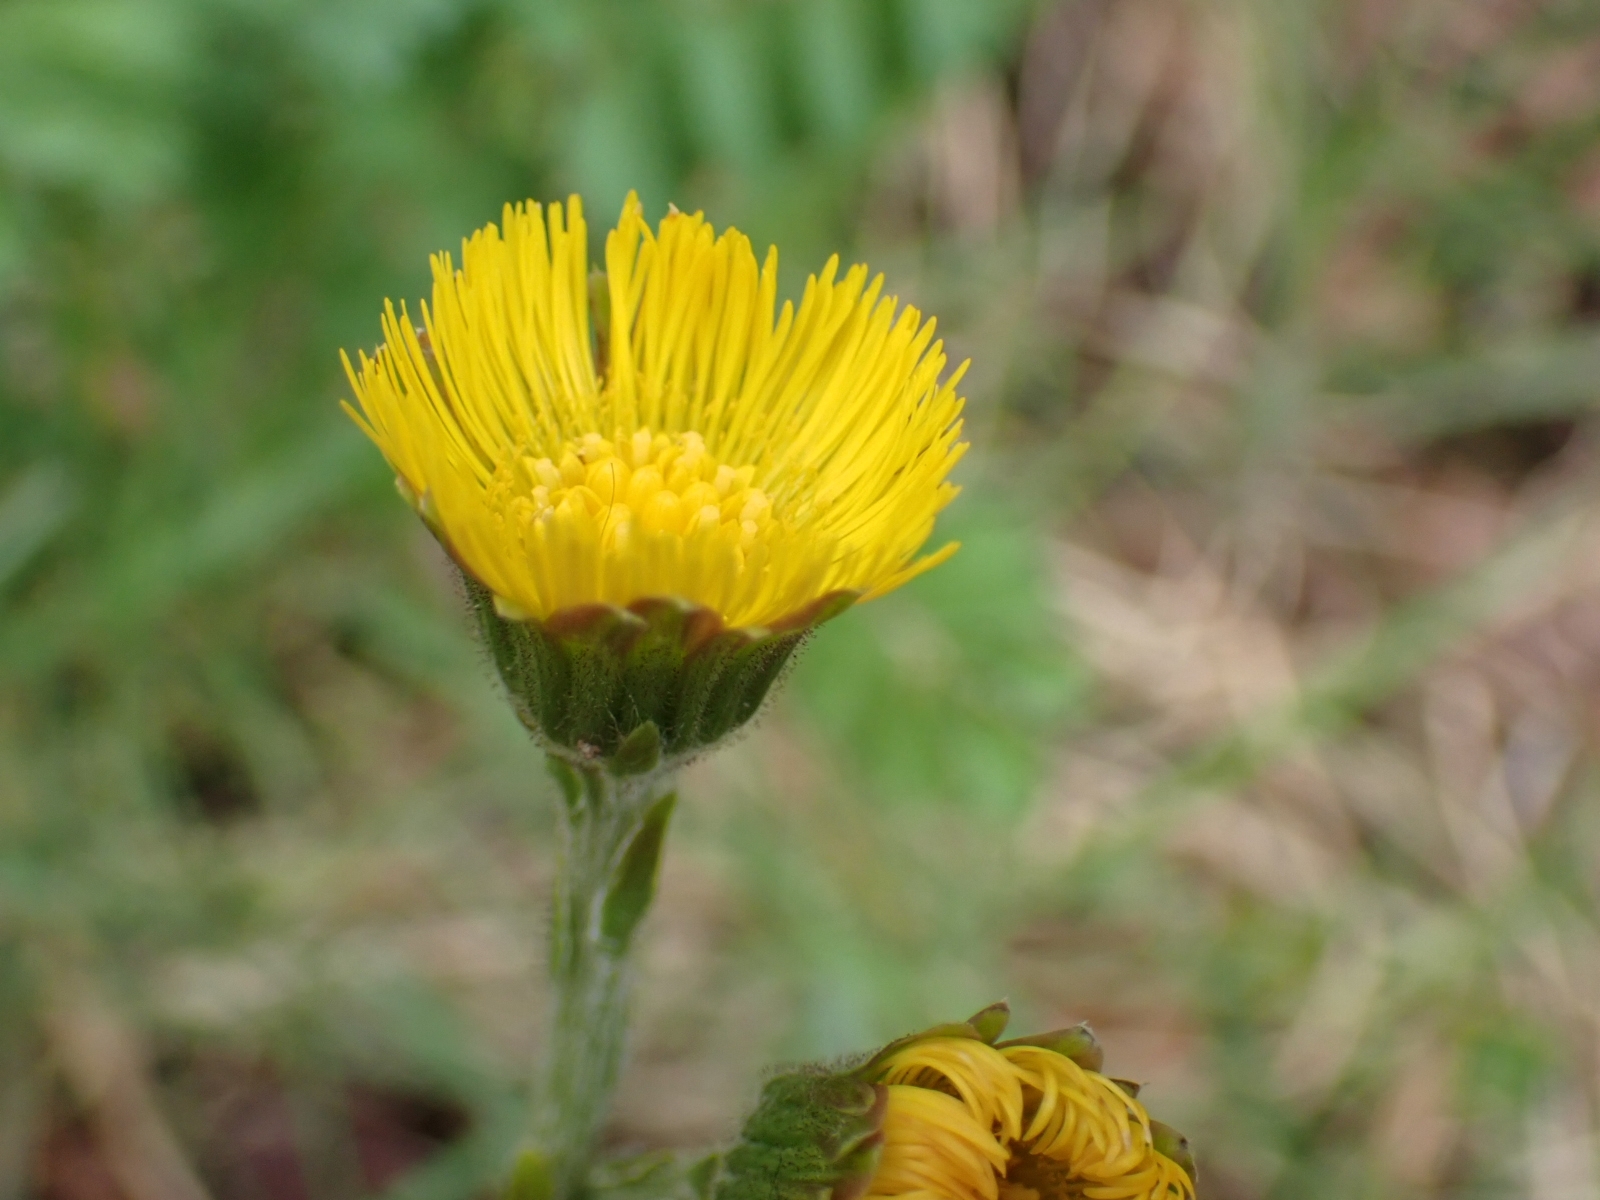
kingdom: Plantae
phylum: Tracheophyta
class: Magnoliopsida
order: Asterales
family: Asteraceae
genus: Tussilago
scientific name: Tussilago farfara
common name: Coltsfoot
